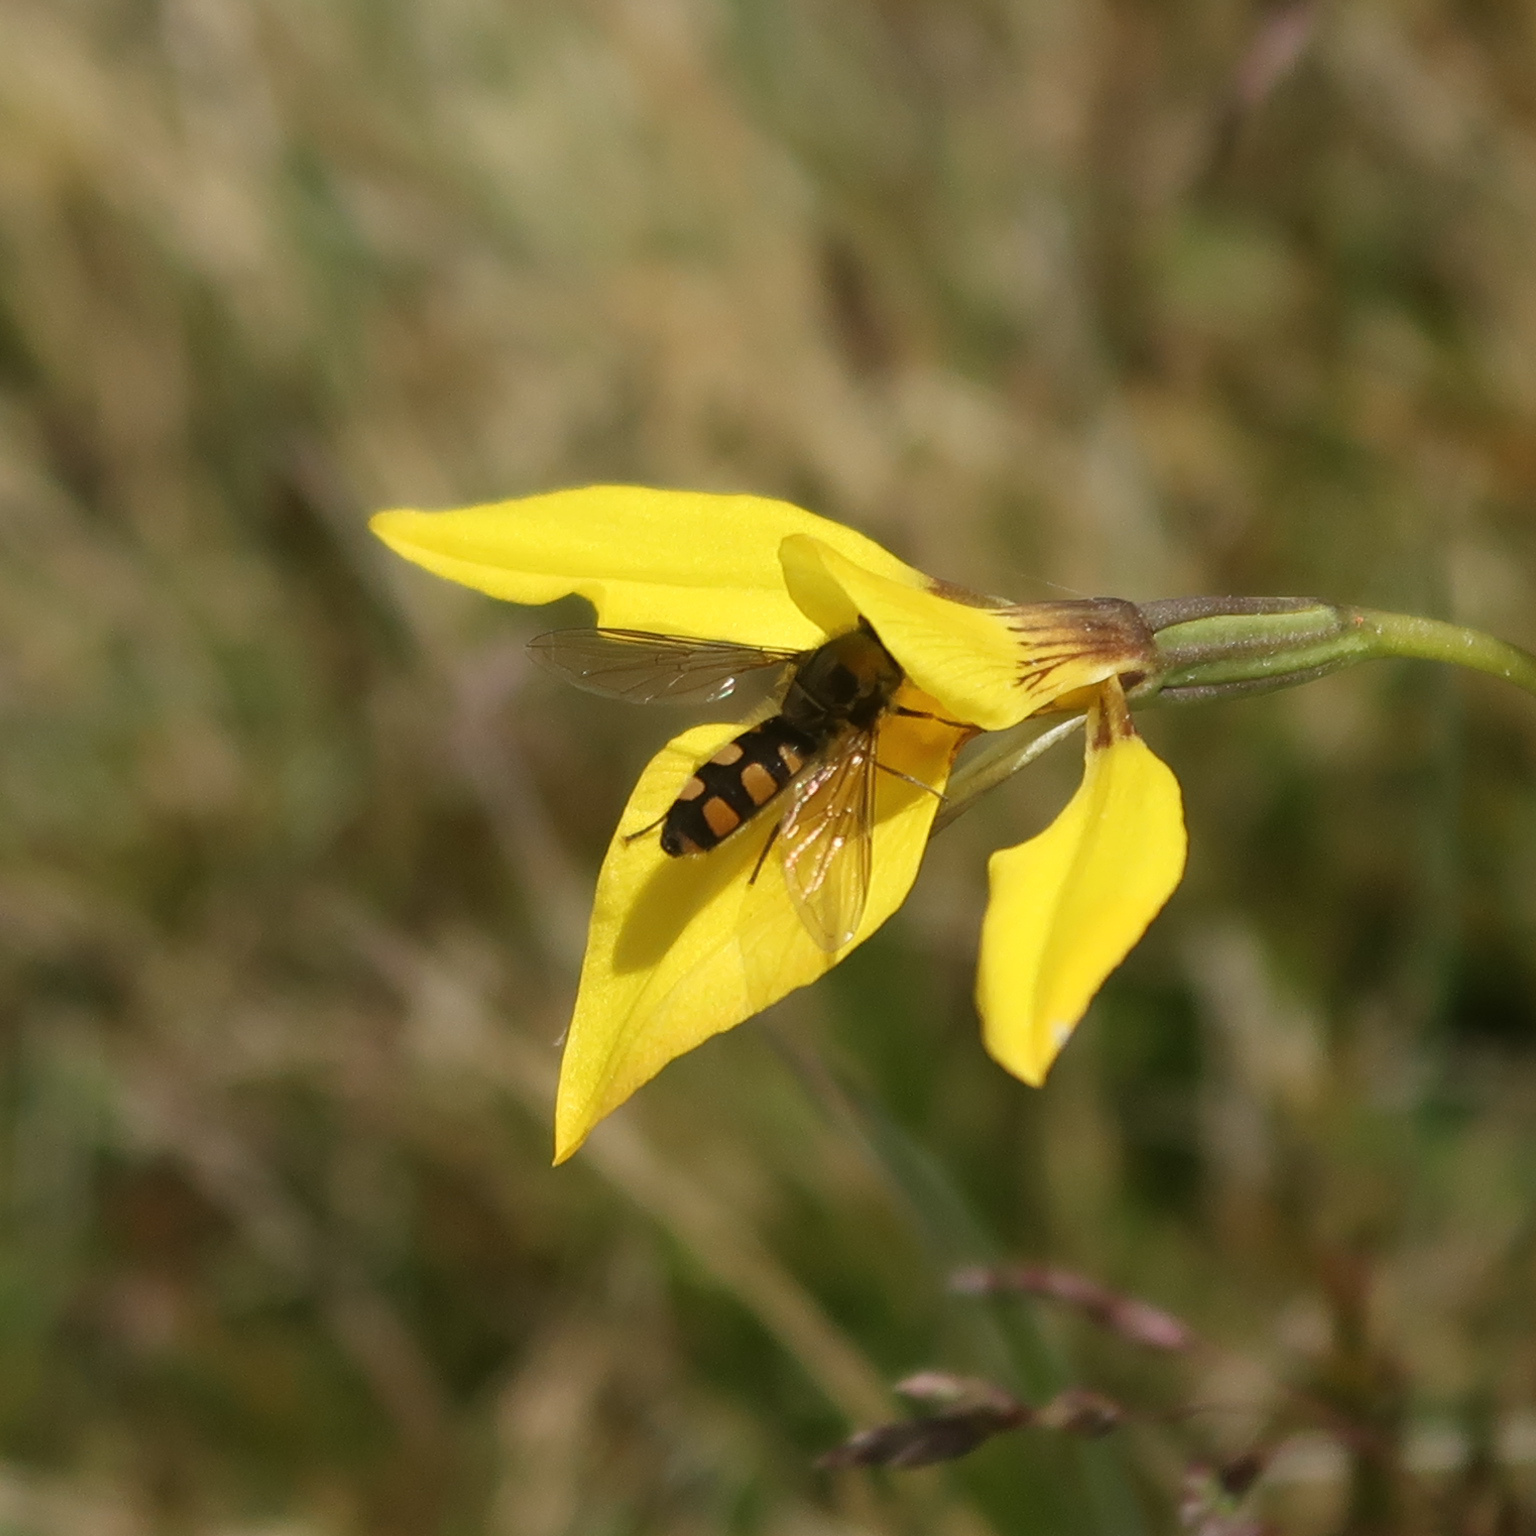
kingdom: Animalia
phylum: Arthropoda
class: Insecta
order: Diptera
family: Syrphidae
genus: Melangyna
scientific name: Melangyna viridiceps
